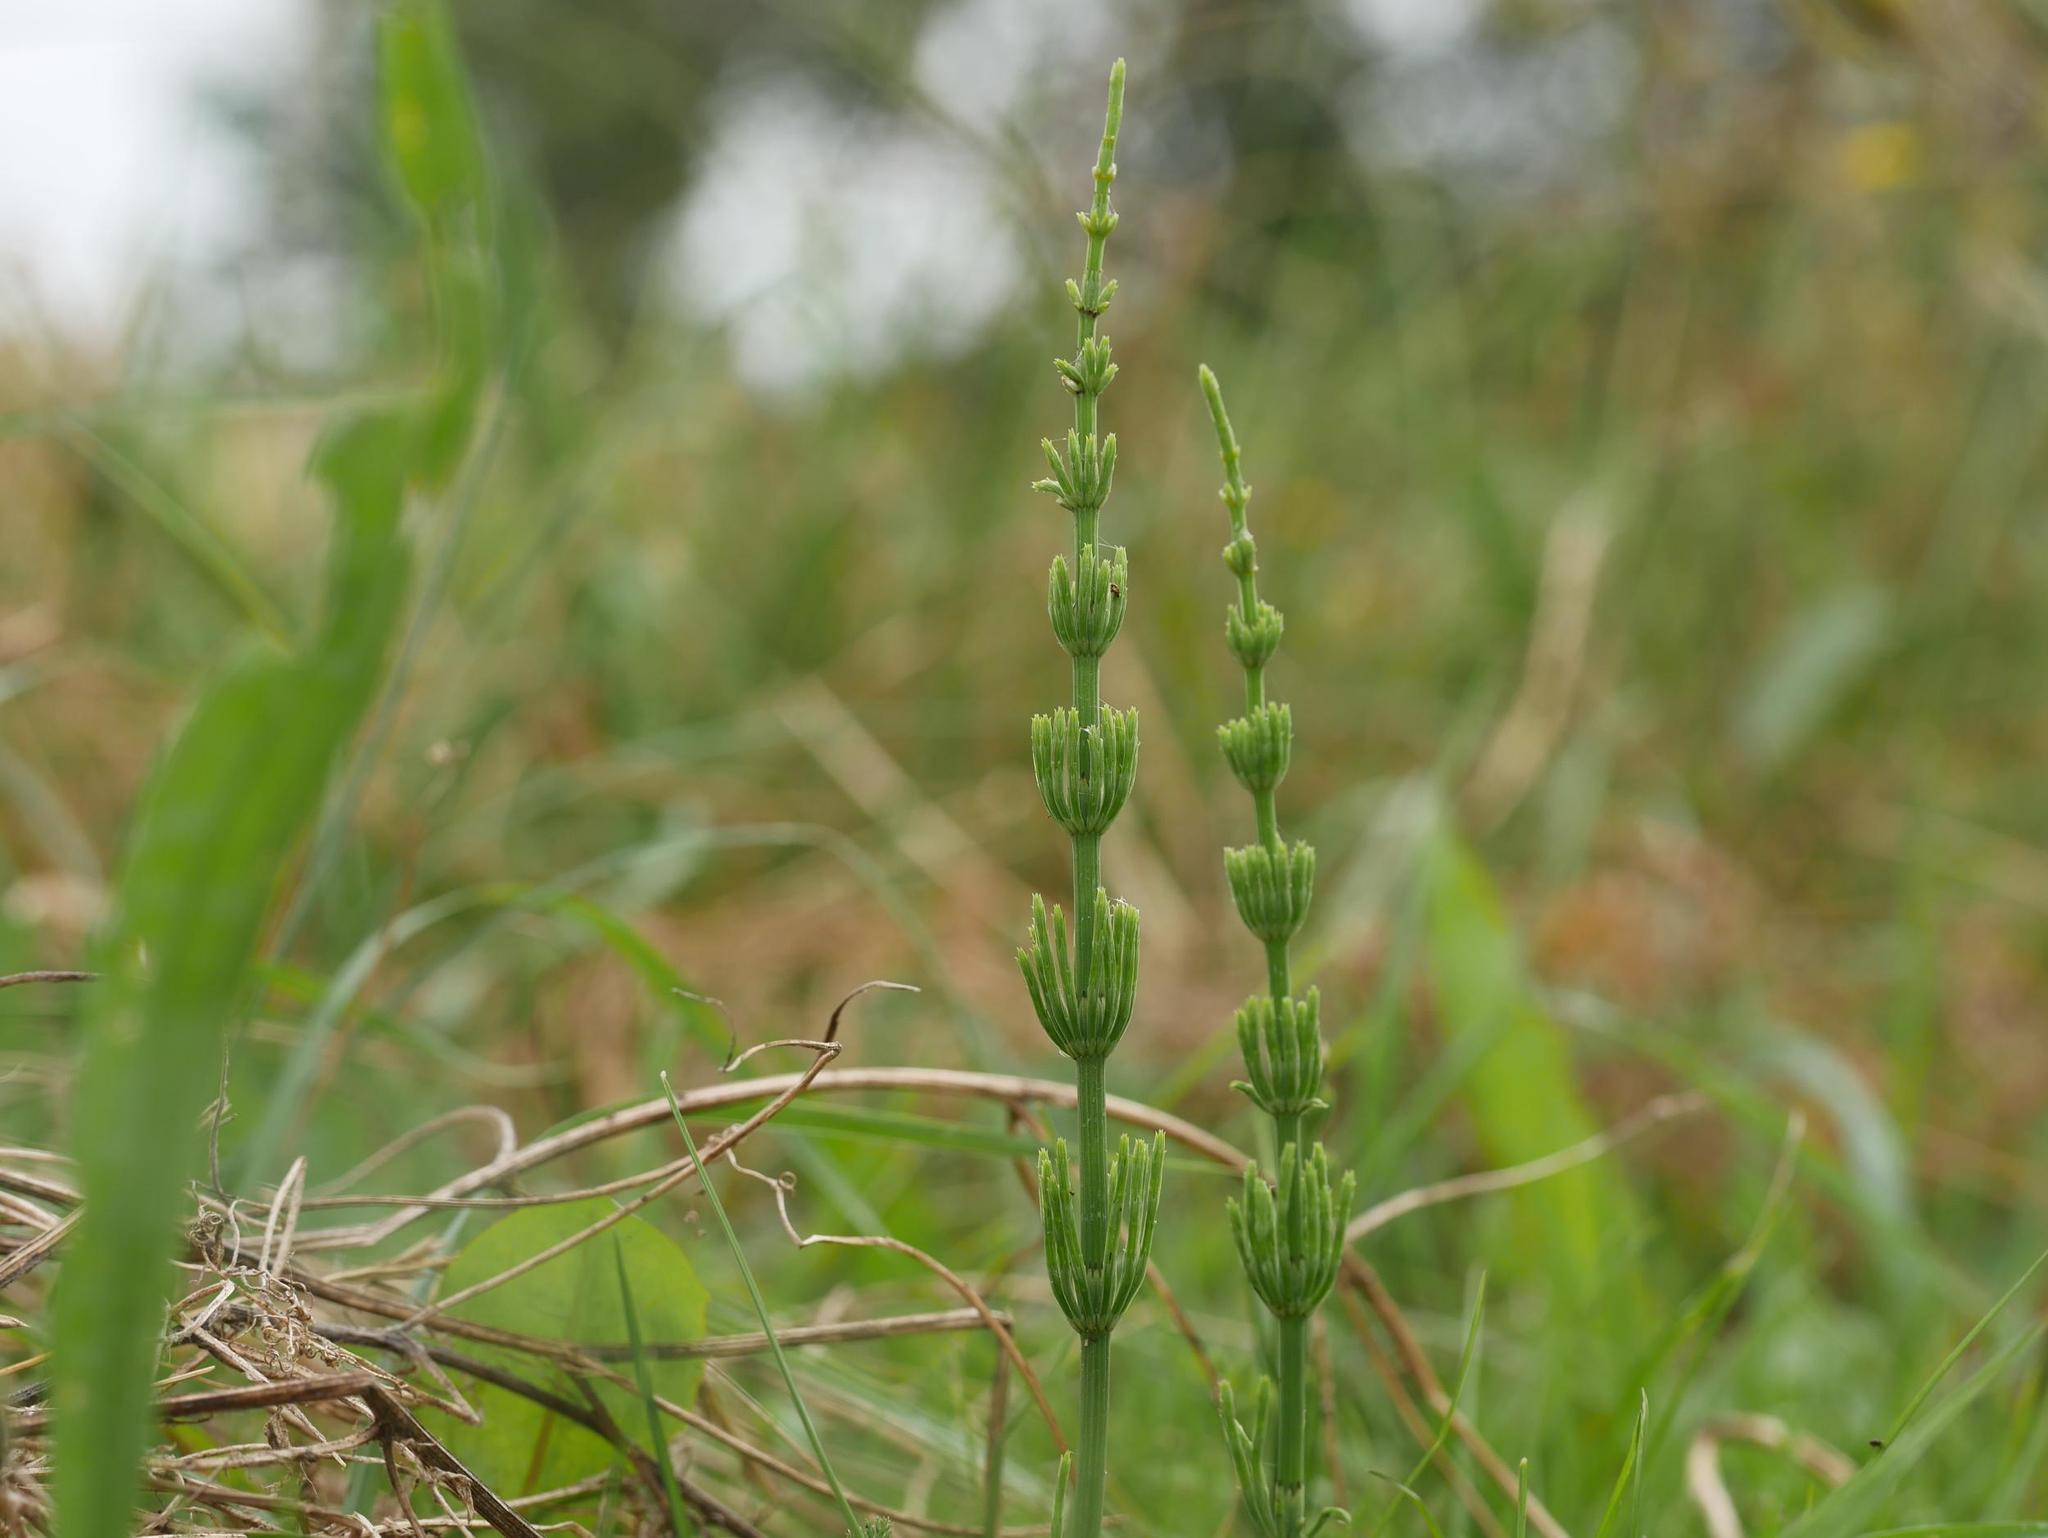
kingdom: Plantae
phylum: Tracheophyta
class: Polypodiopsida
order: Equisetales
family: Equisetaceae
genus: Equisetum
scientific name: Equisetum arvense
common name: Field horsetail
